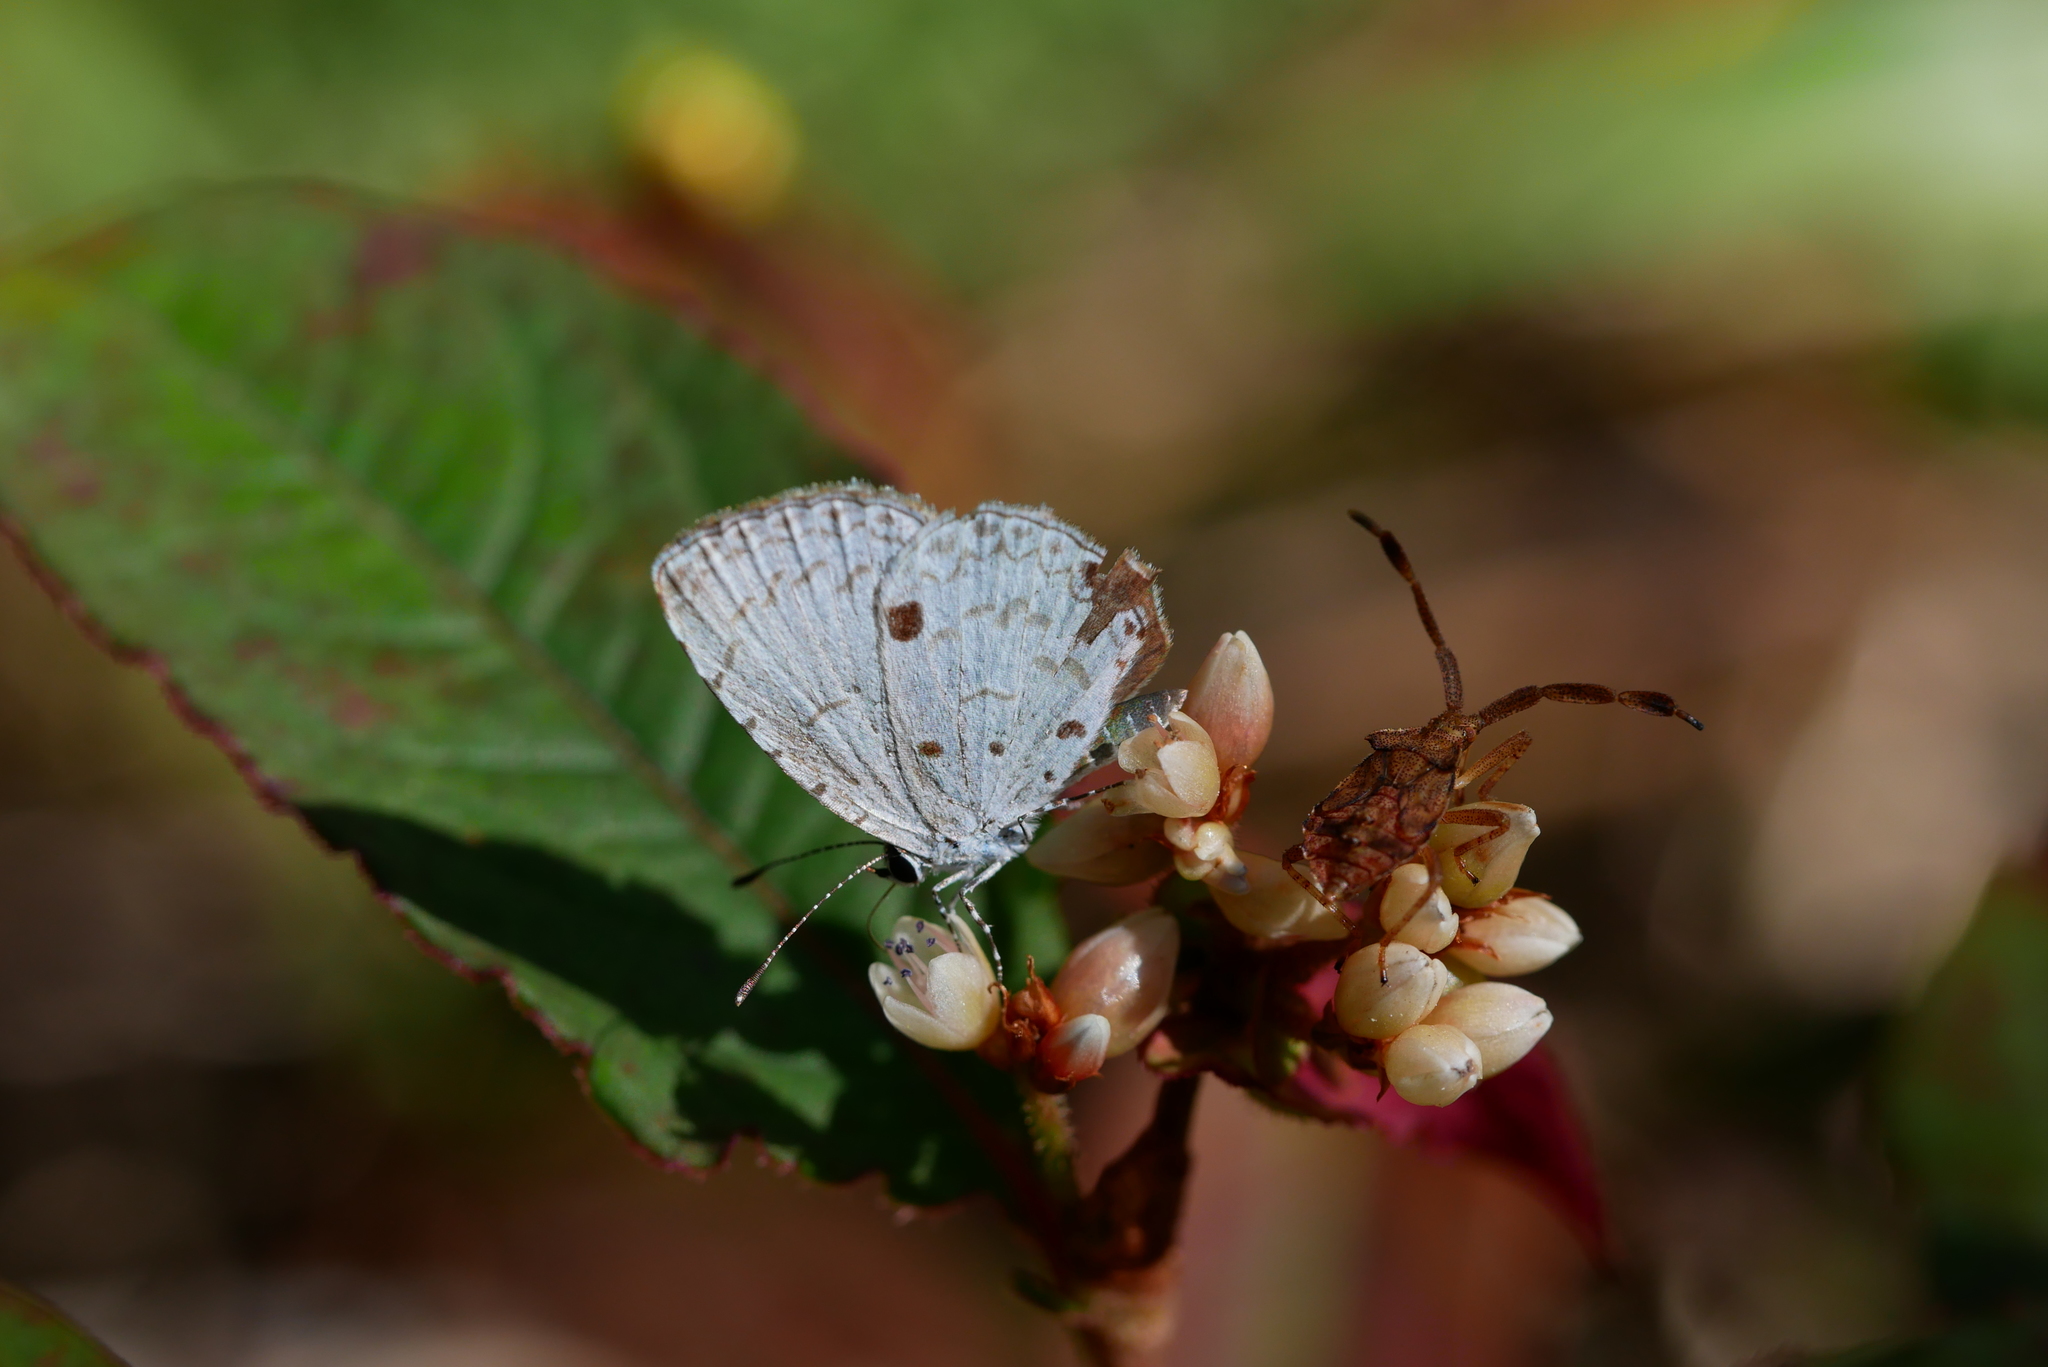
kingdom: Animalia
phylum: Arthropoda
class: Insecta
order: Lepidoptera
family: Lycaenidae
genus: Megisba
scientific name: Megisba malaya
